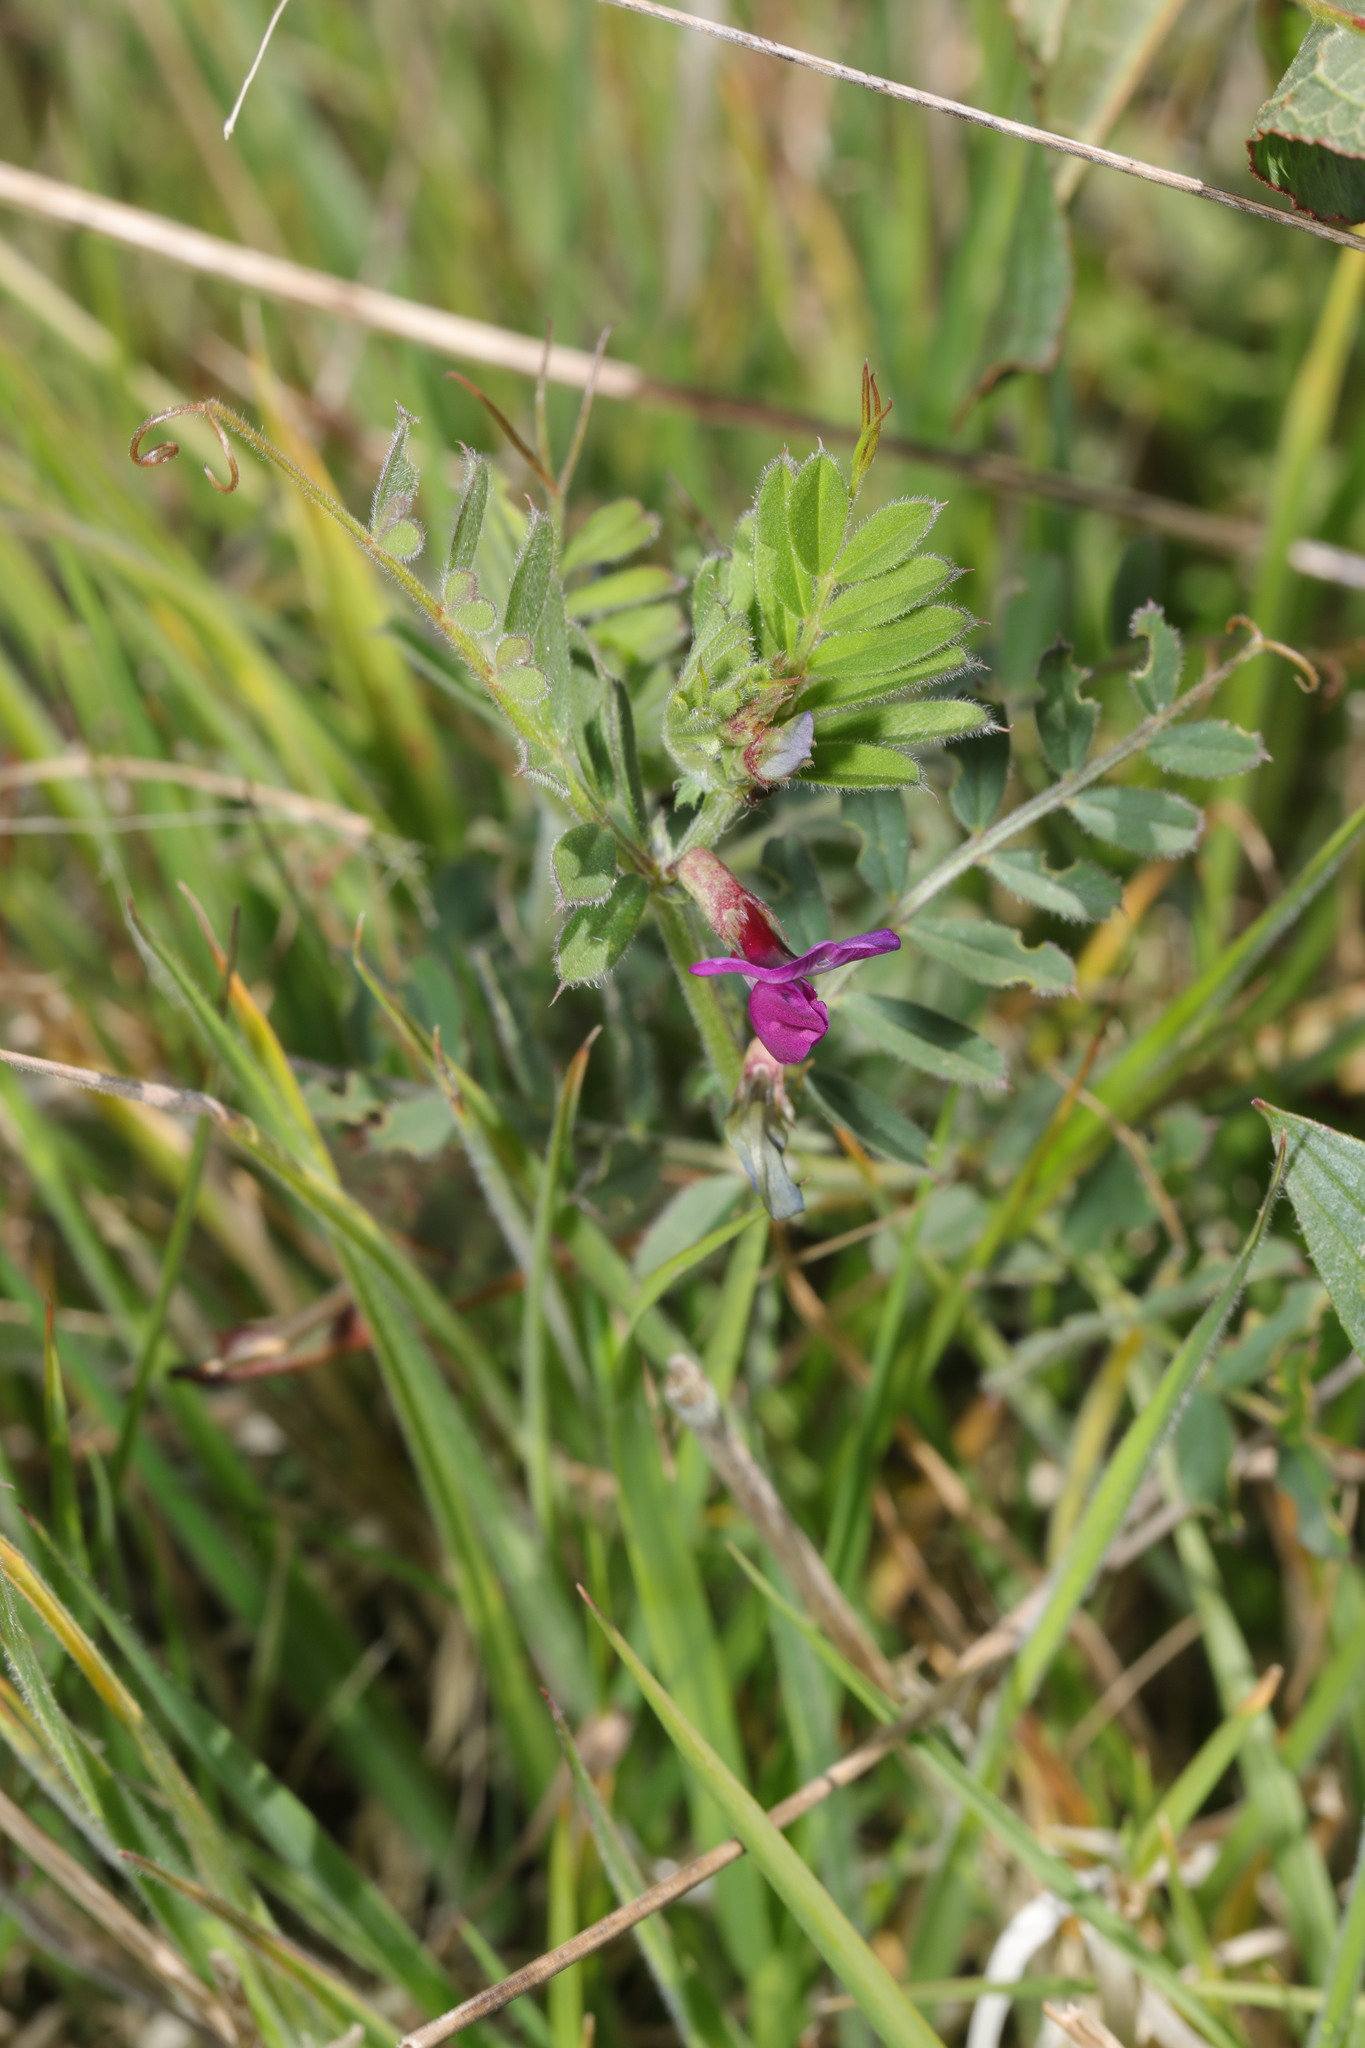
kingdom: Plantae
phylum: Tracheophyta
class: Magnoliopsida
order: Fabales
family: Fabaceae
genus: Vicia
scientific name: Vicia sativa
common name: Garden vetch
